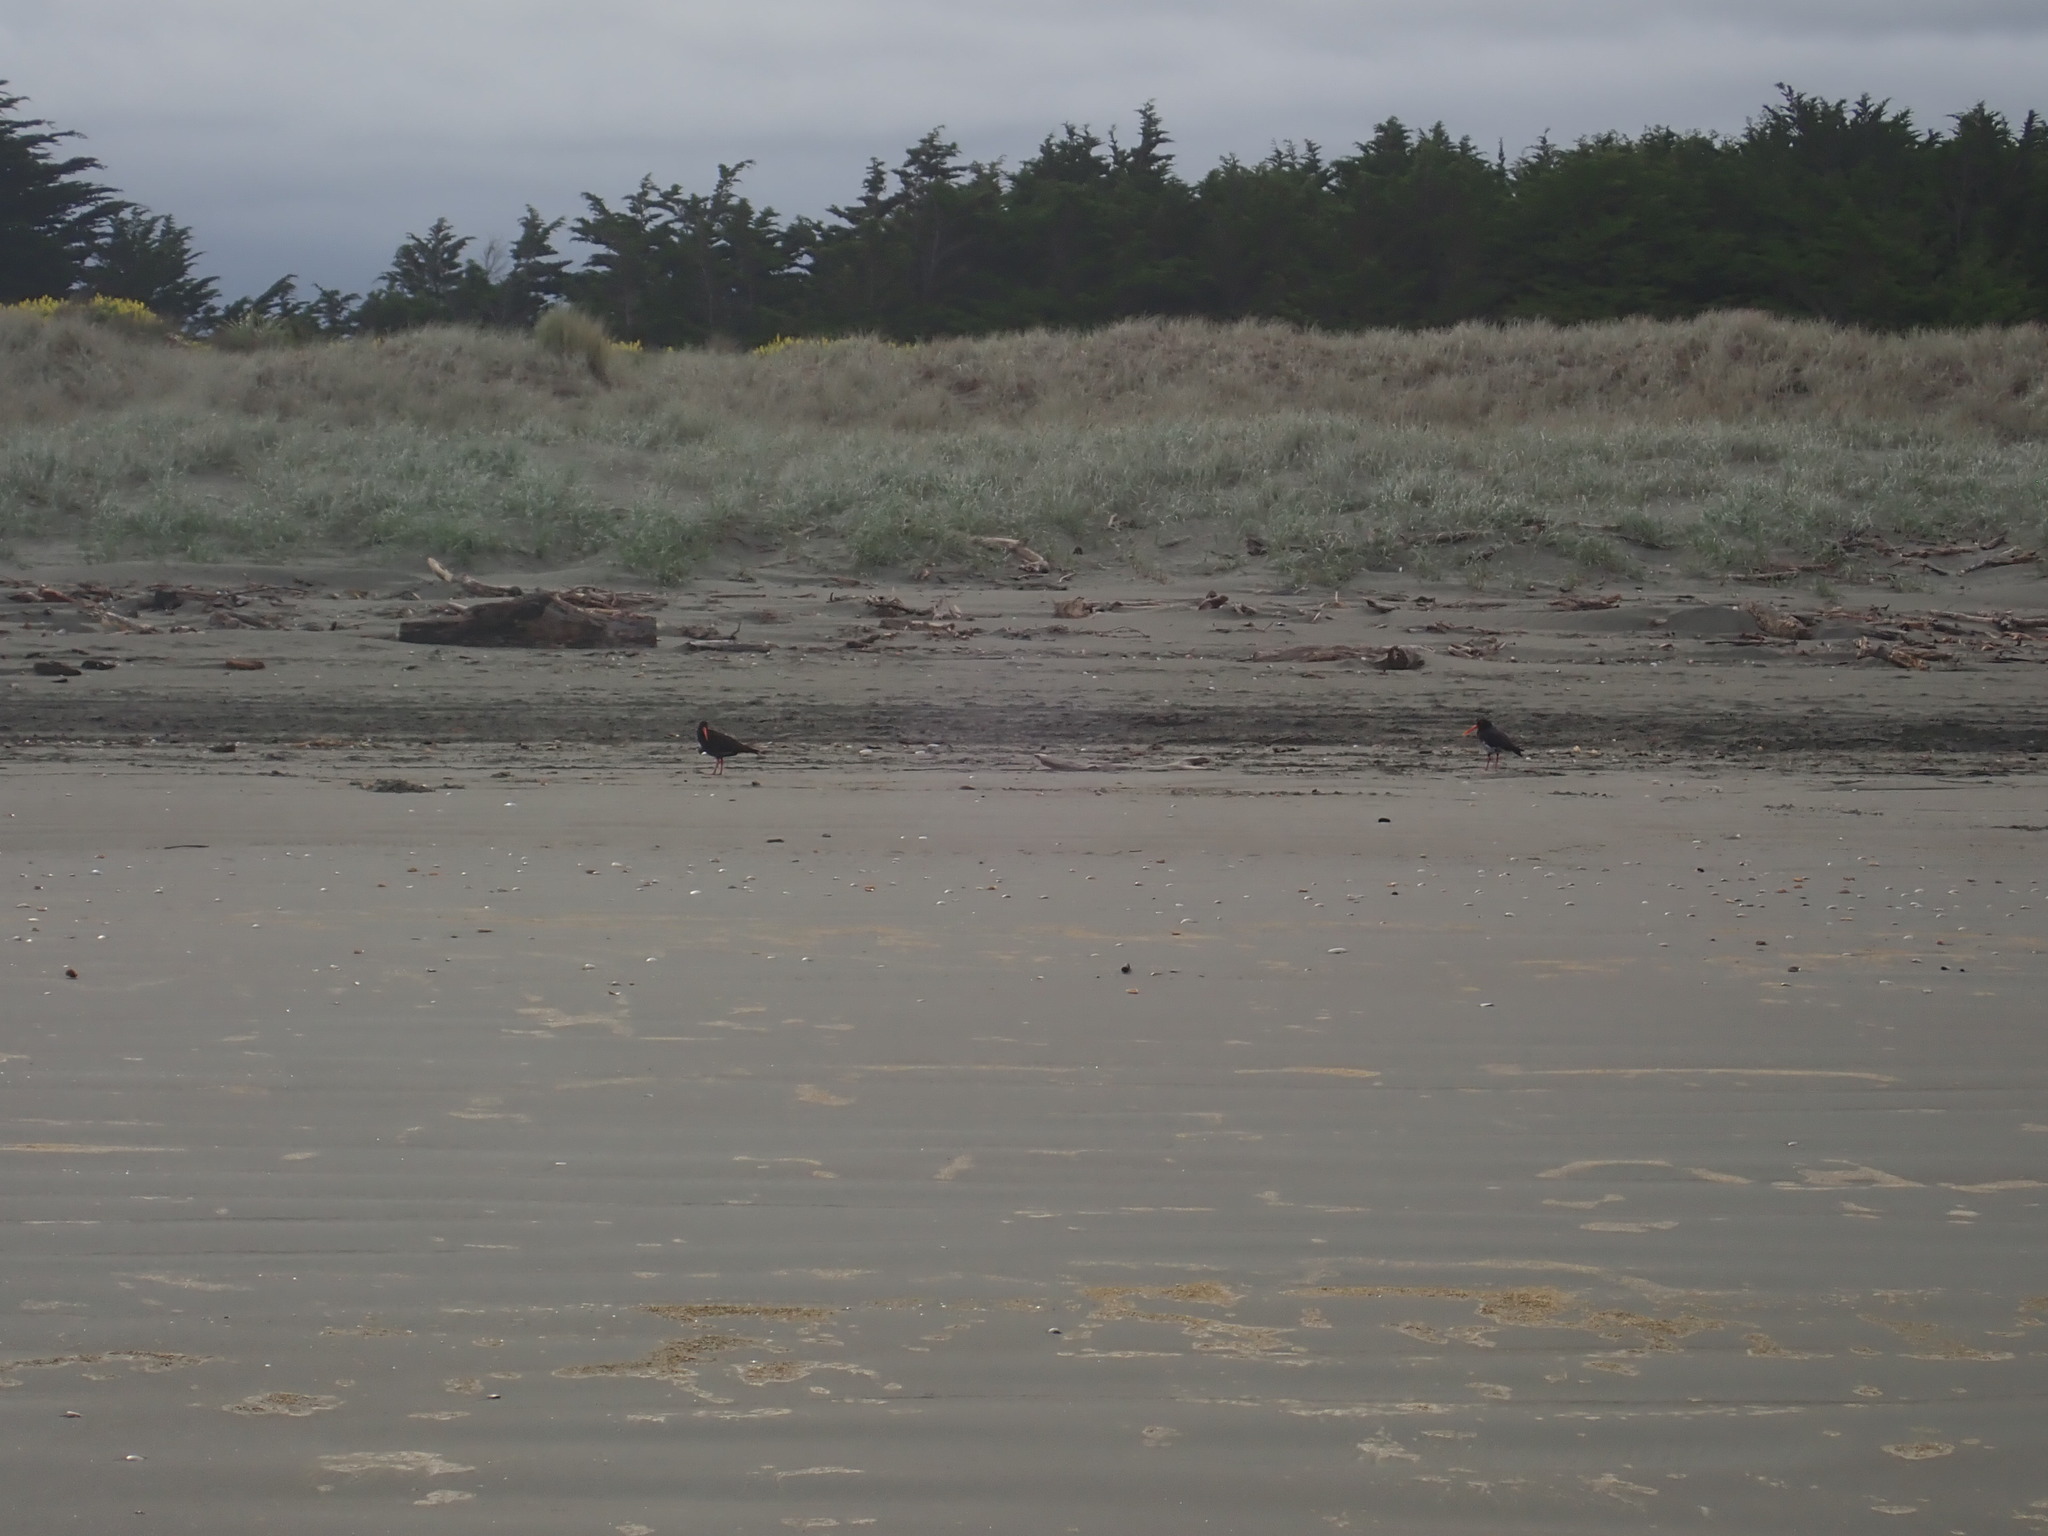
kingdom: Animalia
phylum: Chordata
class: Aves
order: Charadriiformes
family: Haematopodidae
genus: Haematopus
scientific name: Haematopus unicolor
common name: Variable oystercatcher
